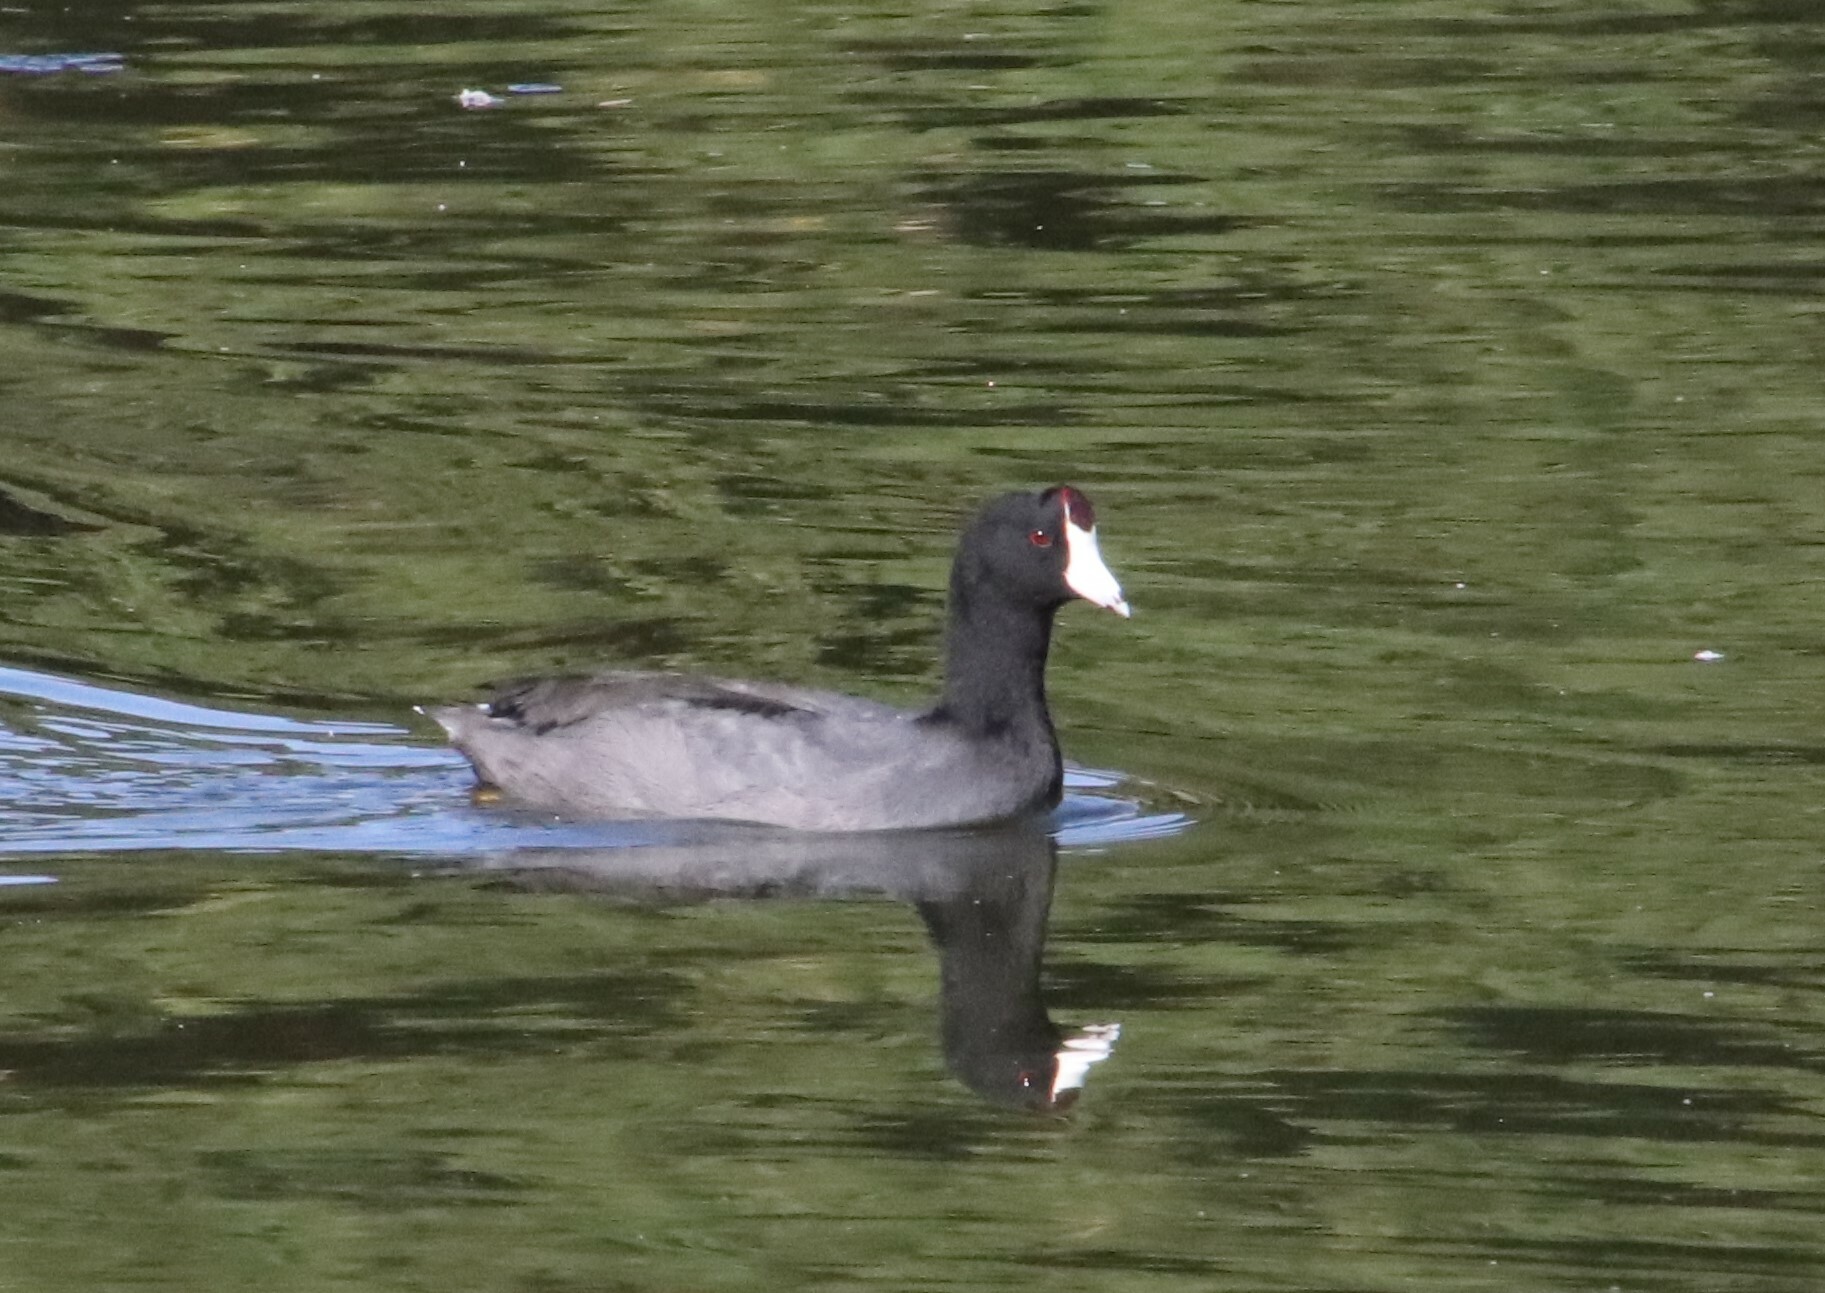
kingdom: Animalia
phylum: Chordata
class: Aves
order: Gruiformes
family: Rallidae
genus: Fulica
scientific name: Fulica americana
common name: American coot
